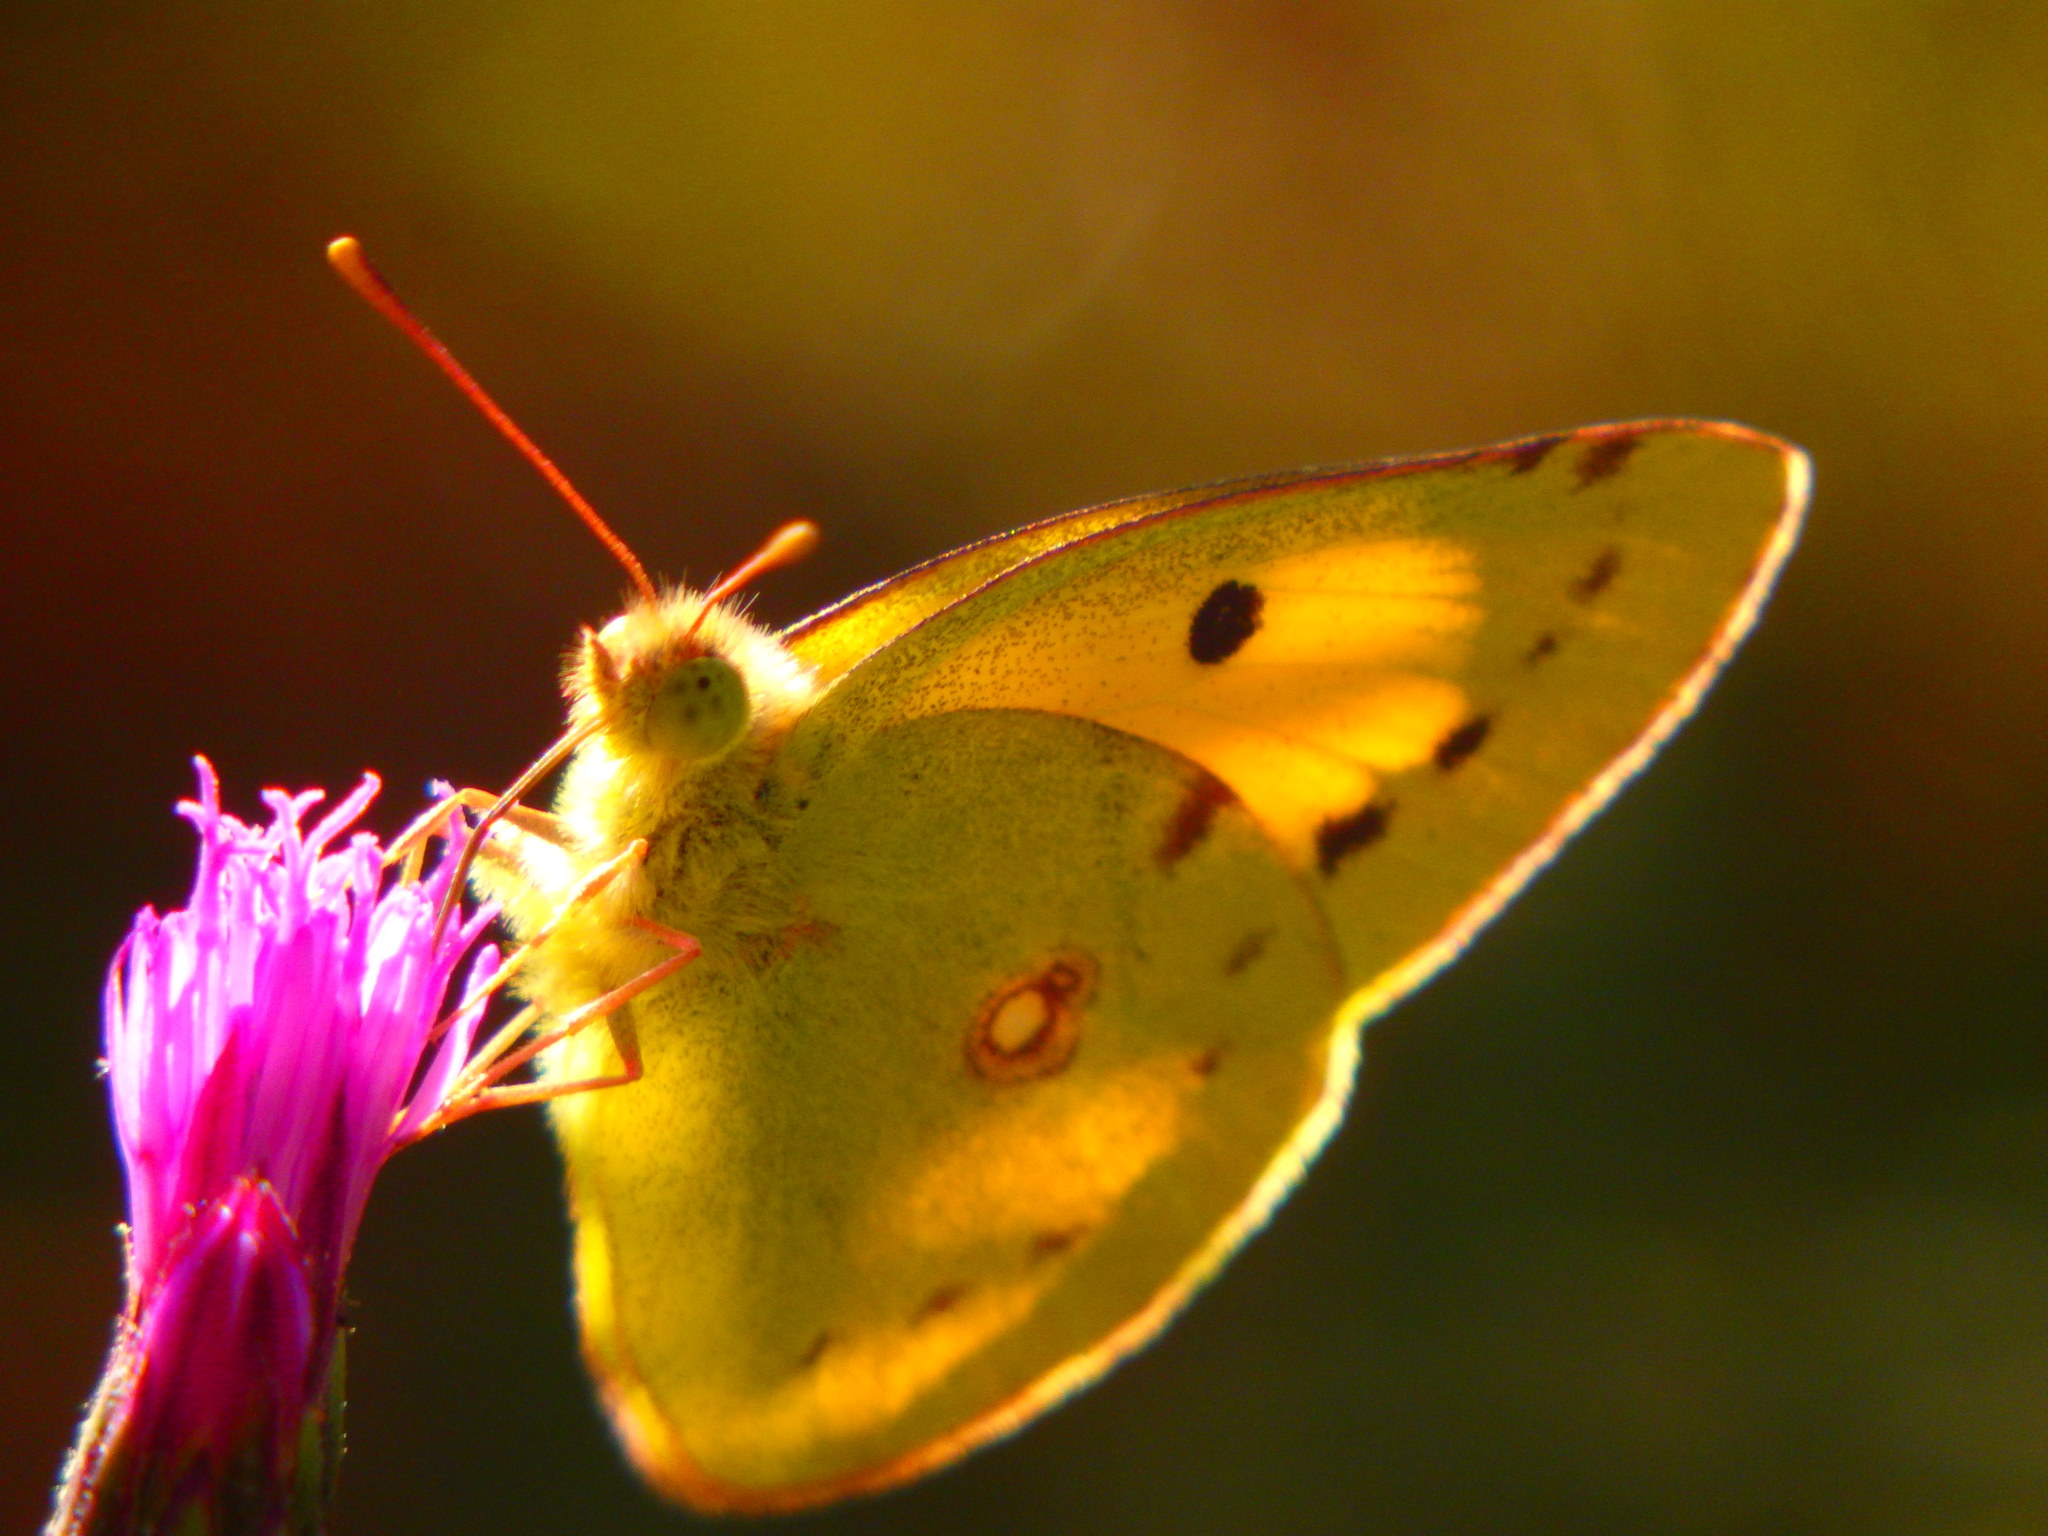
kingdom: Animalia
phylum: Arthropoda
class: Insecta
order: Lepidoptera
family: Pieridae
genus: Colias
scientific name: Colias croceus
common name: Clouded yellow
